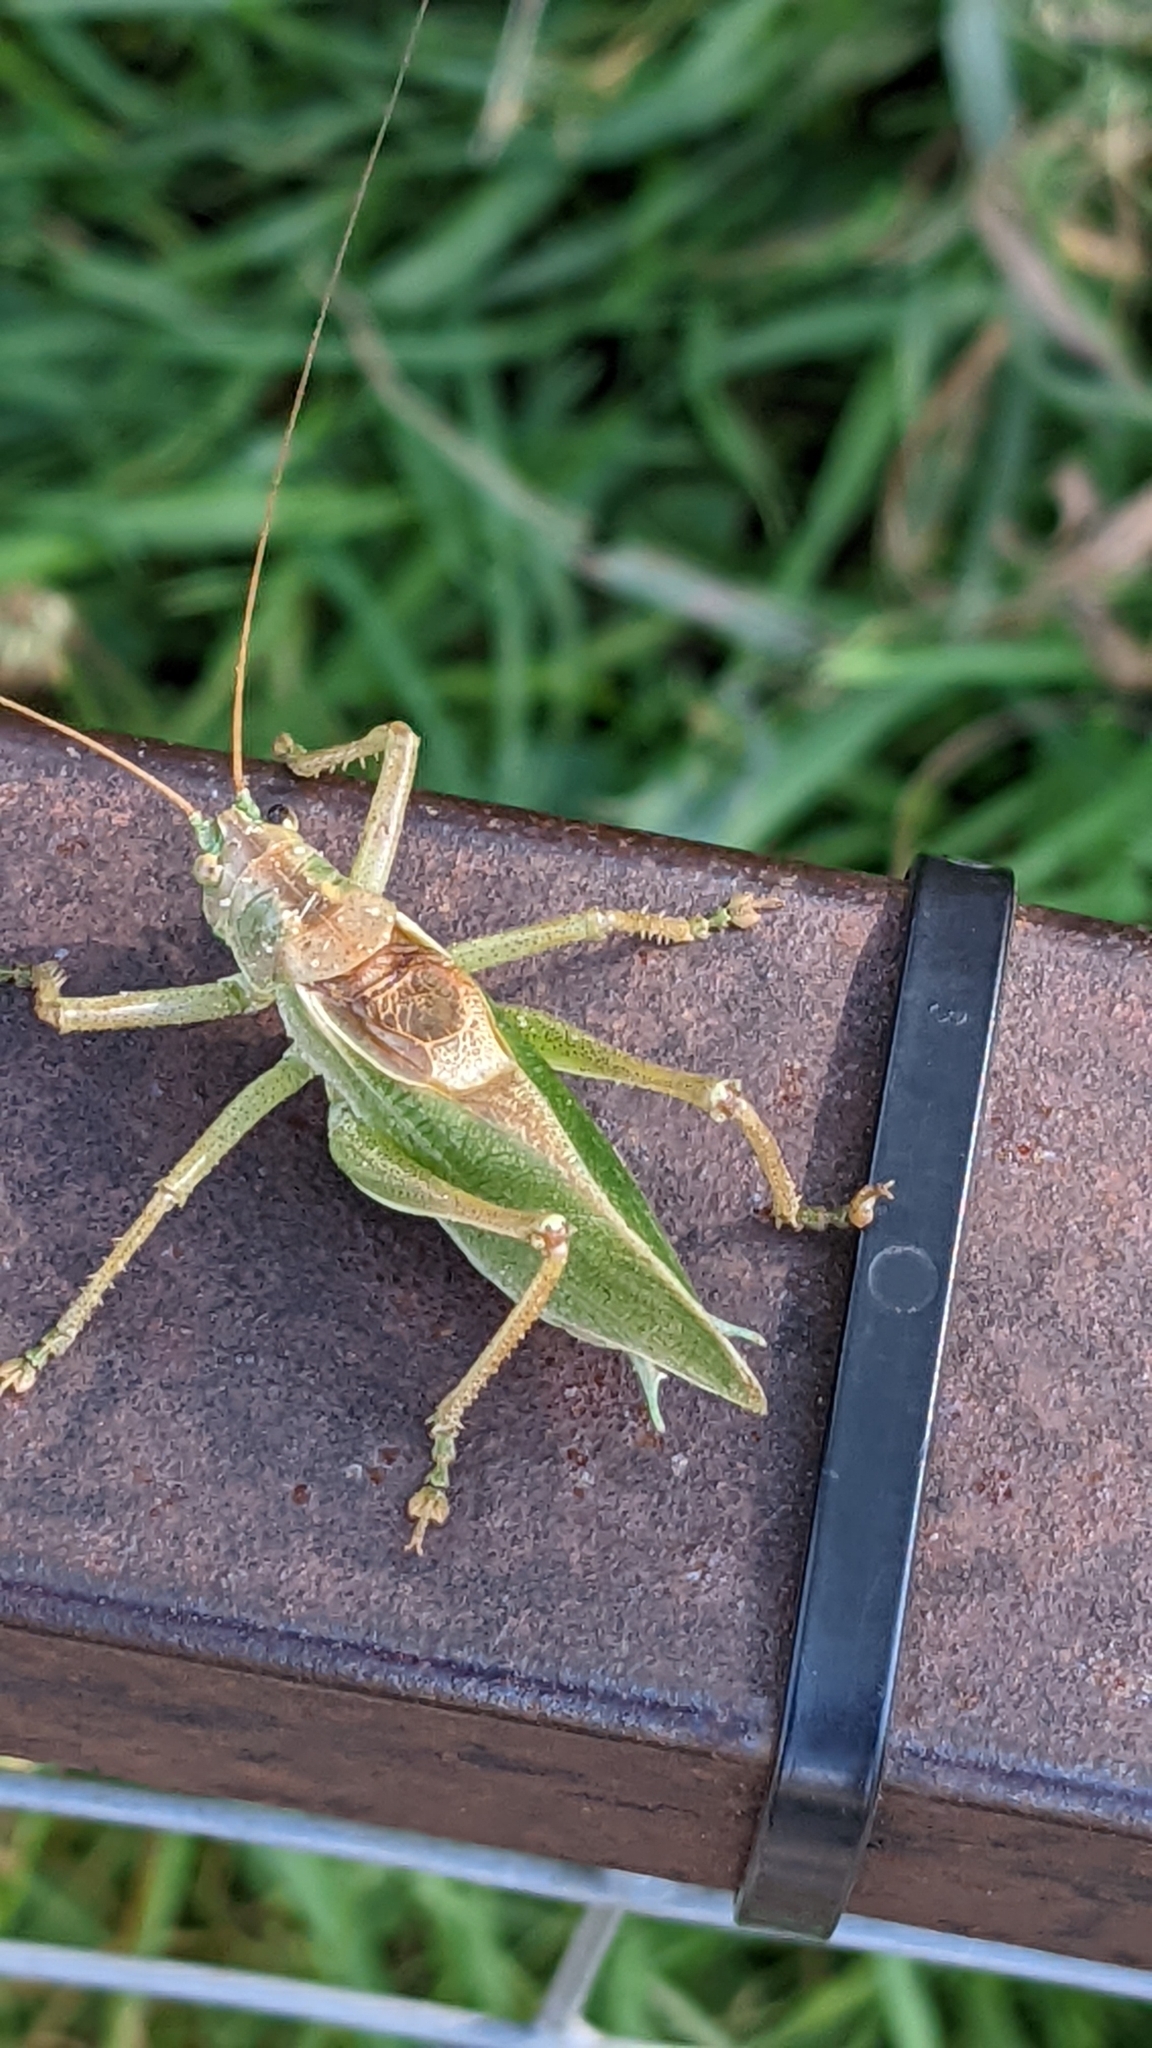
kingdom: Animalia
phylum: Arthropoda
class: Insecta
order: Orthoptera
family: Tettigoniidae
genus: Tettigonia
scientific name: Tettigonia cantans
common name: Upland green bush-cricket
